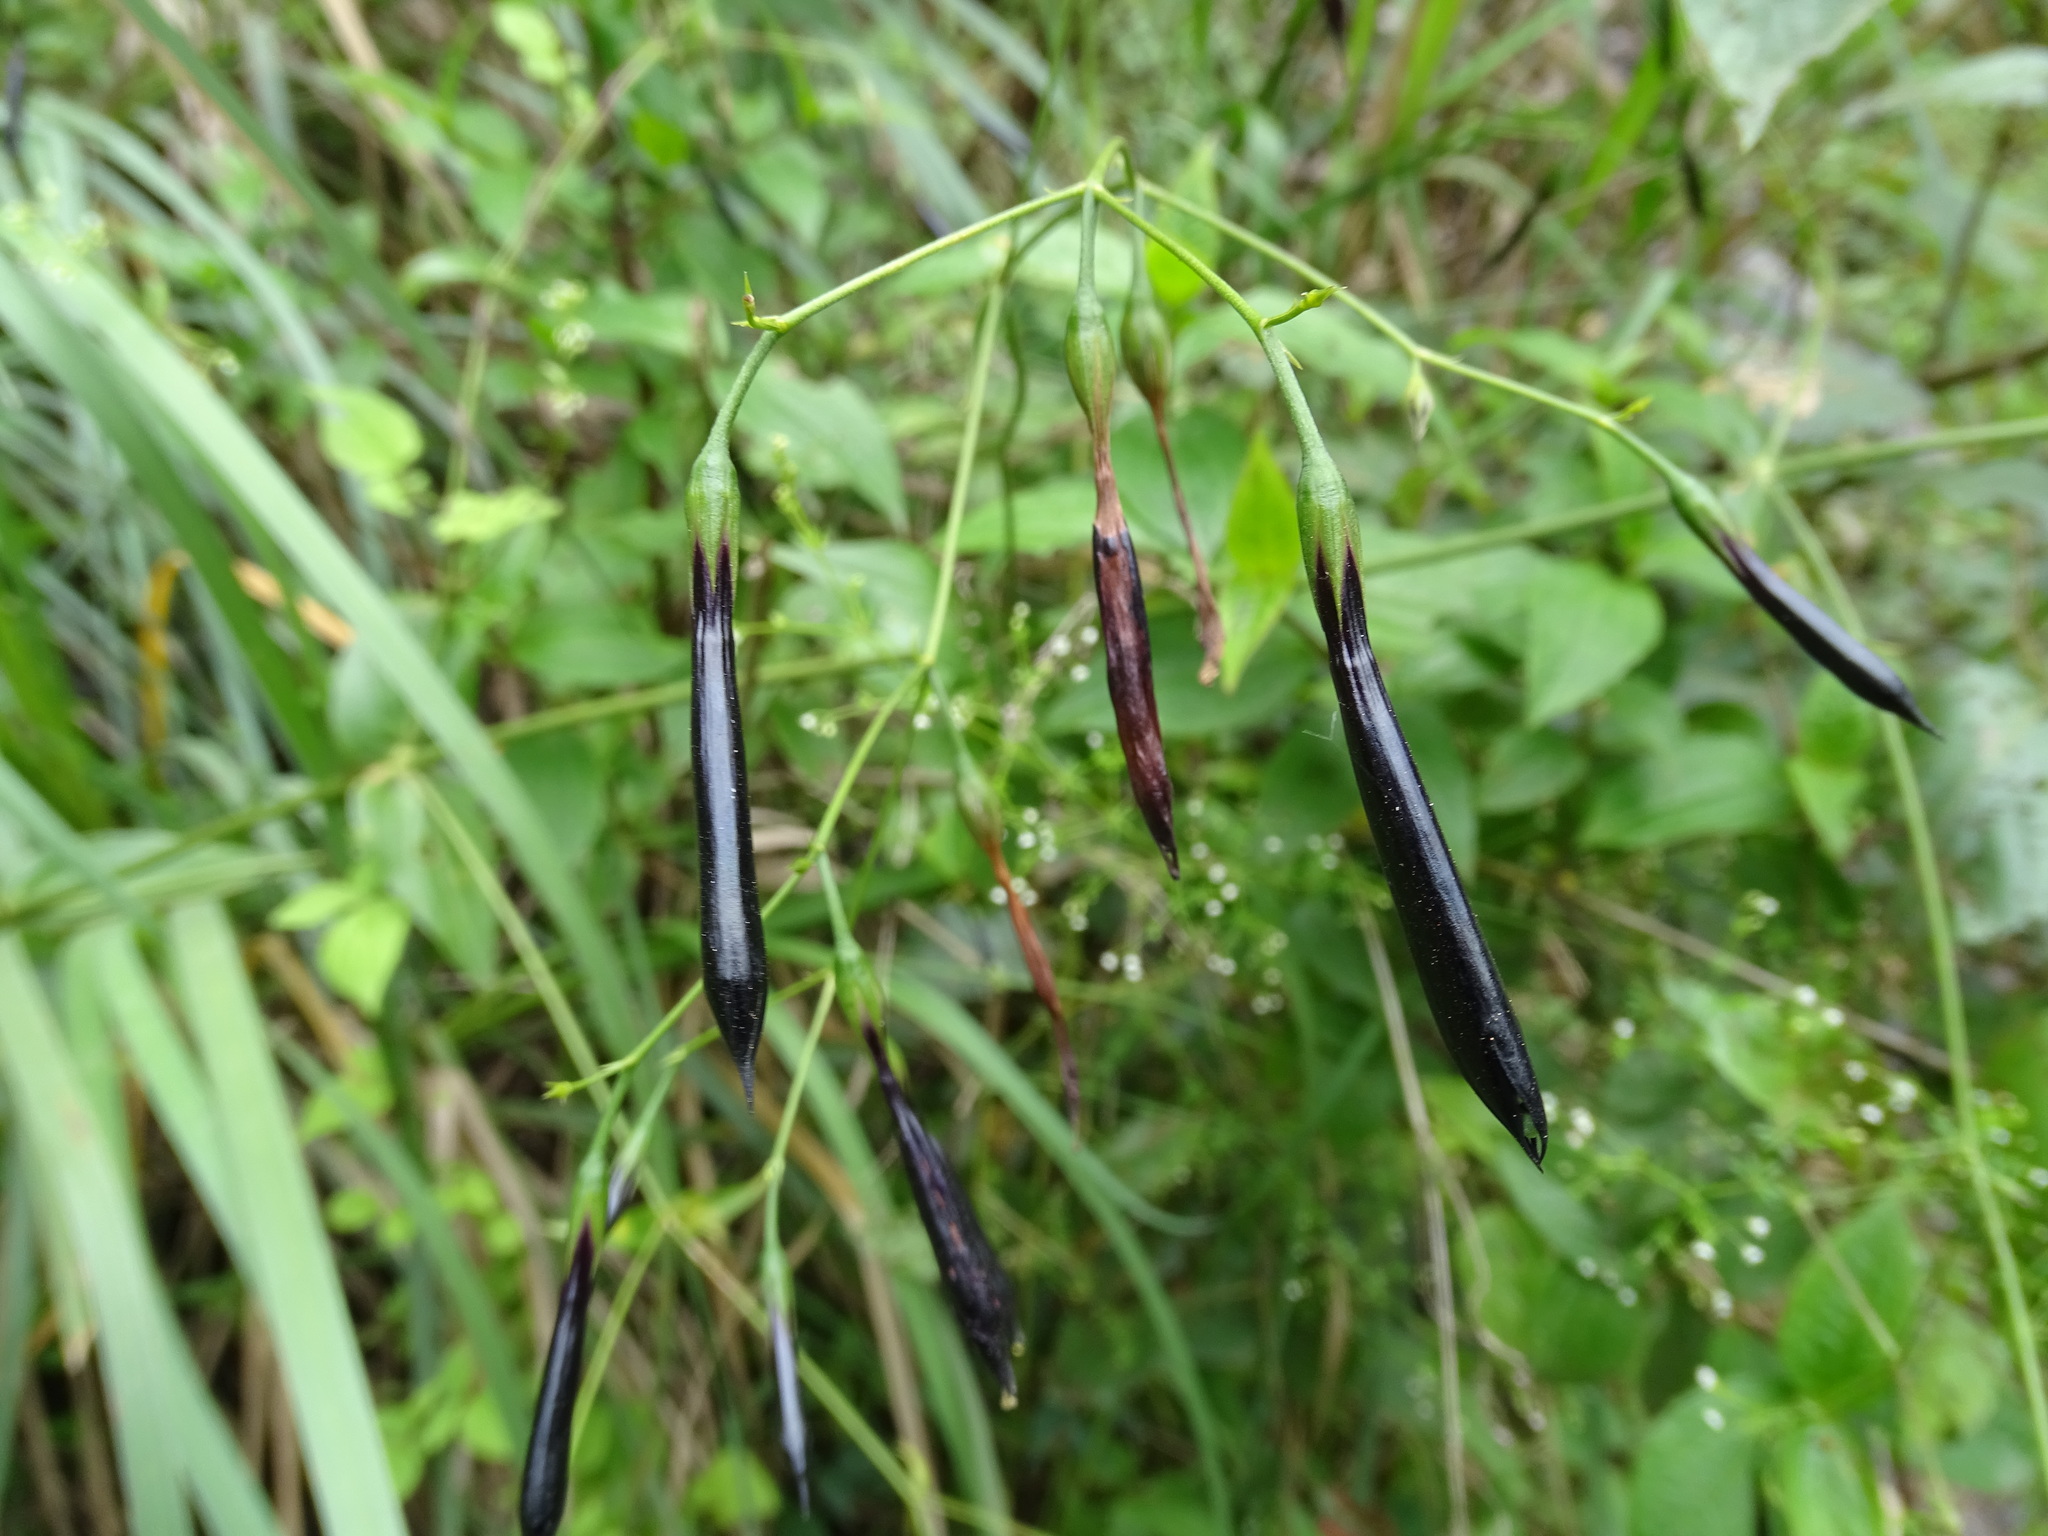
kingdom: Plantae
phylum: Tracheophyta
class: Magnoliopsida
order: Gentianales
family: Gentianaceae
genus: Lisianthus
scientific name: Lisianthus nigrescens
